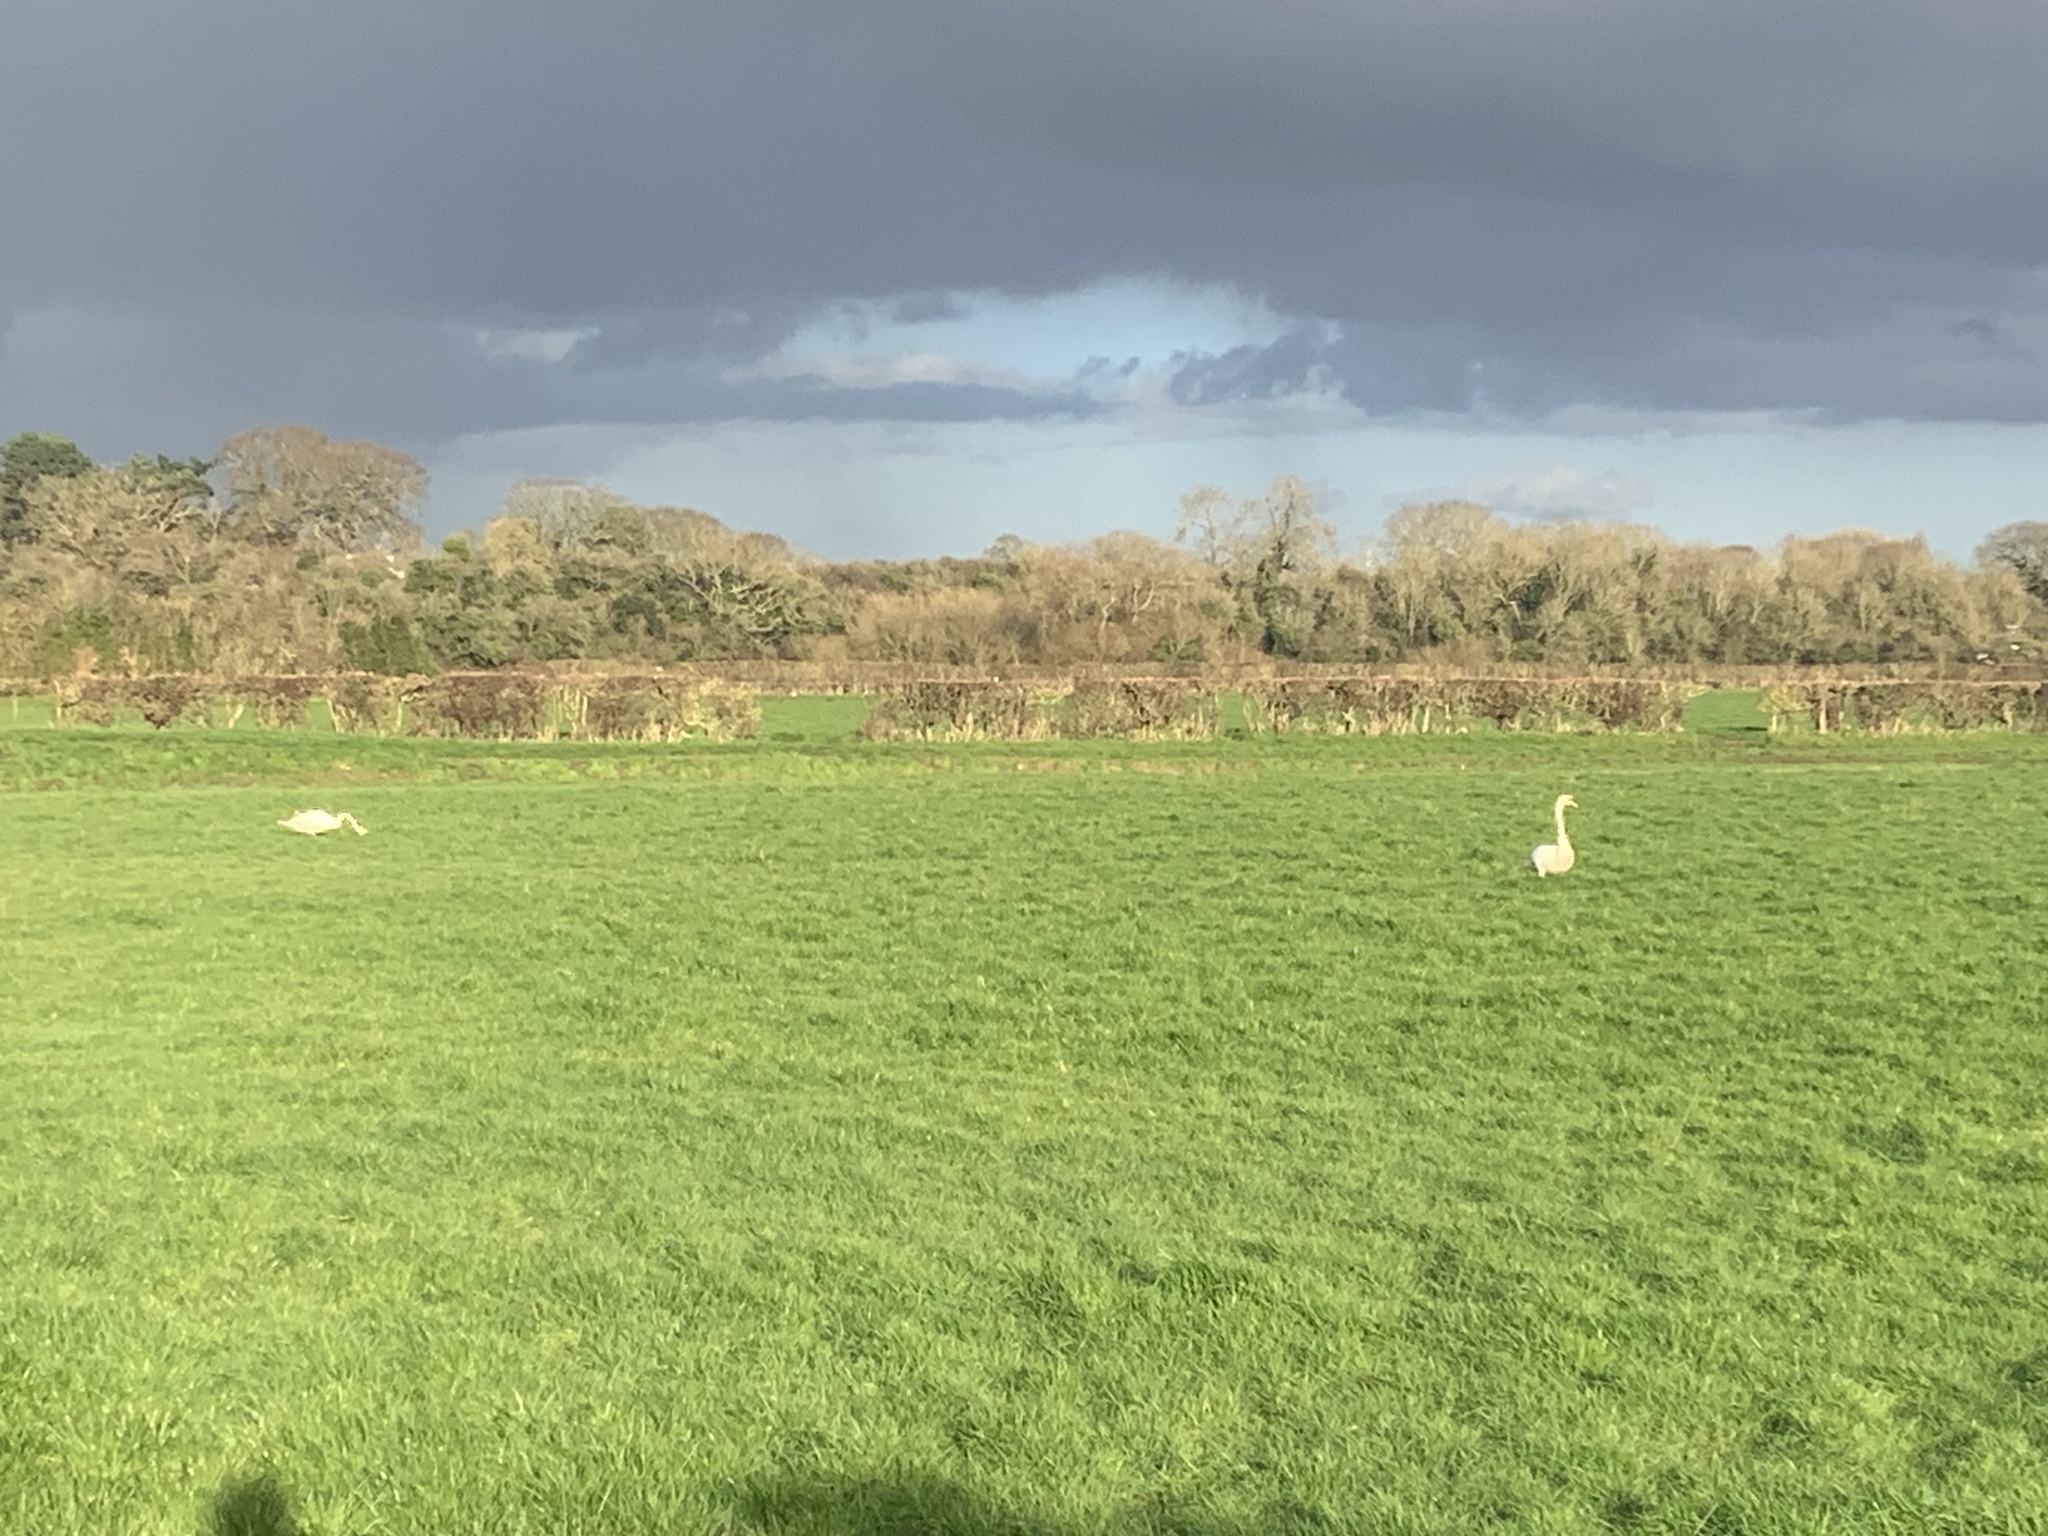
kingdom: Animalia
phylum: Chordata
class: Aves
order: Anseriformes
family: Anatidae
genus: Cygnus
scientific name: Cygnus olor
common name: Mute swan
